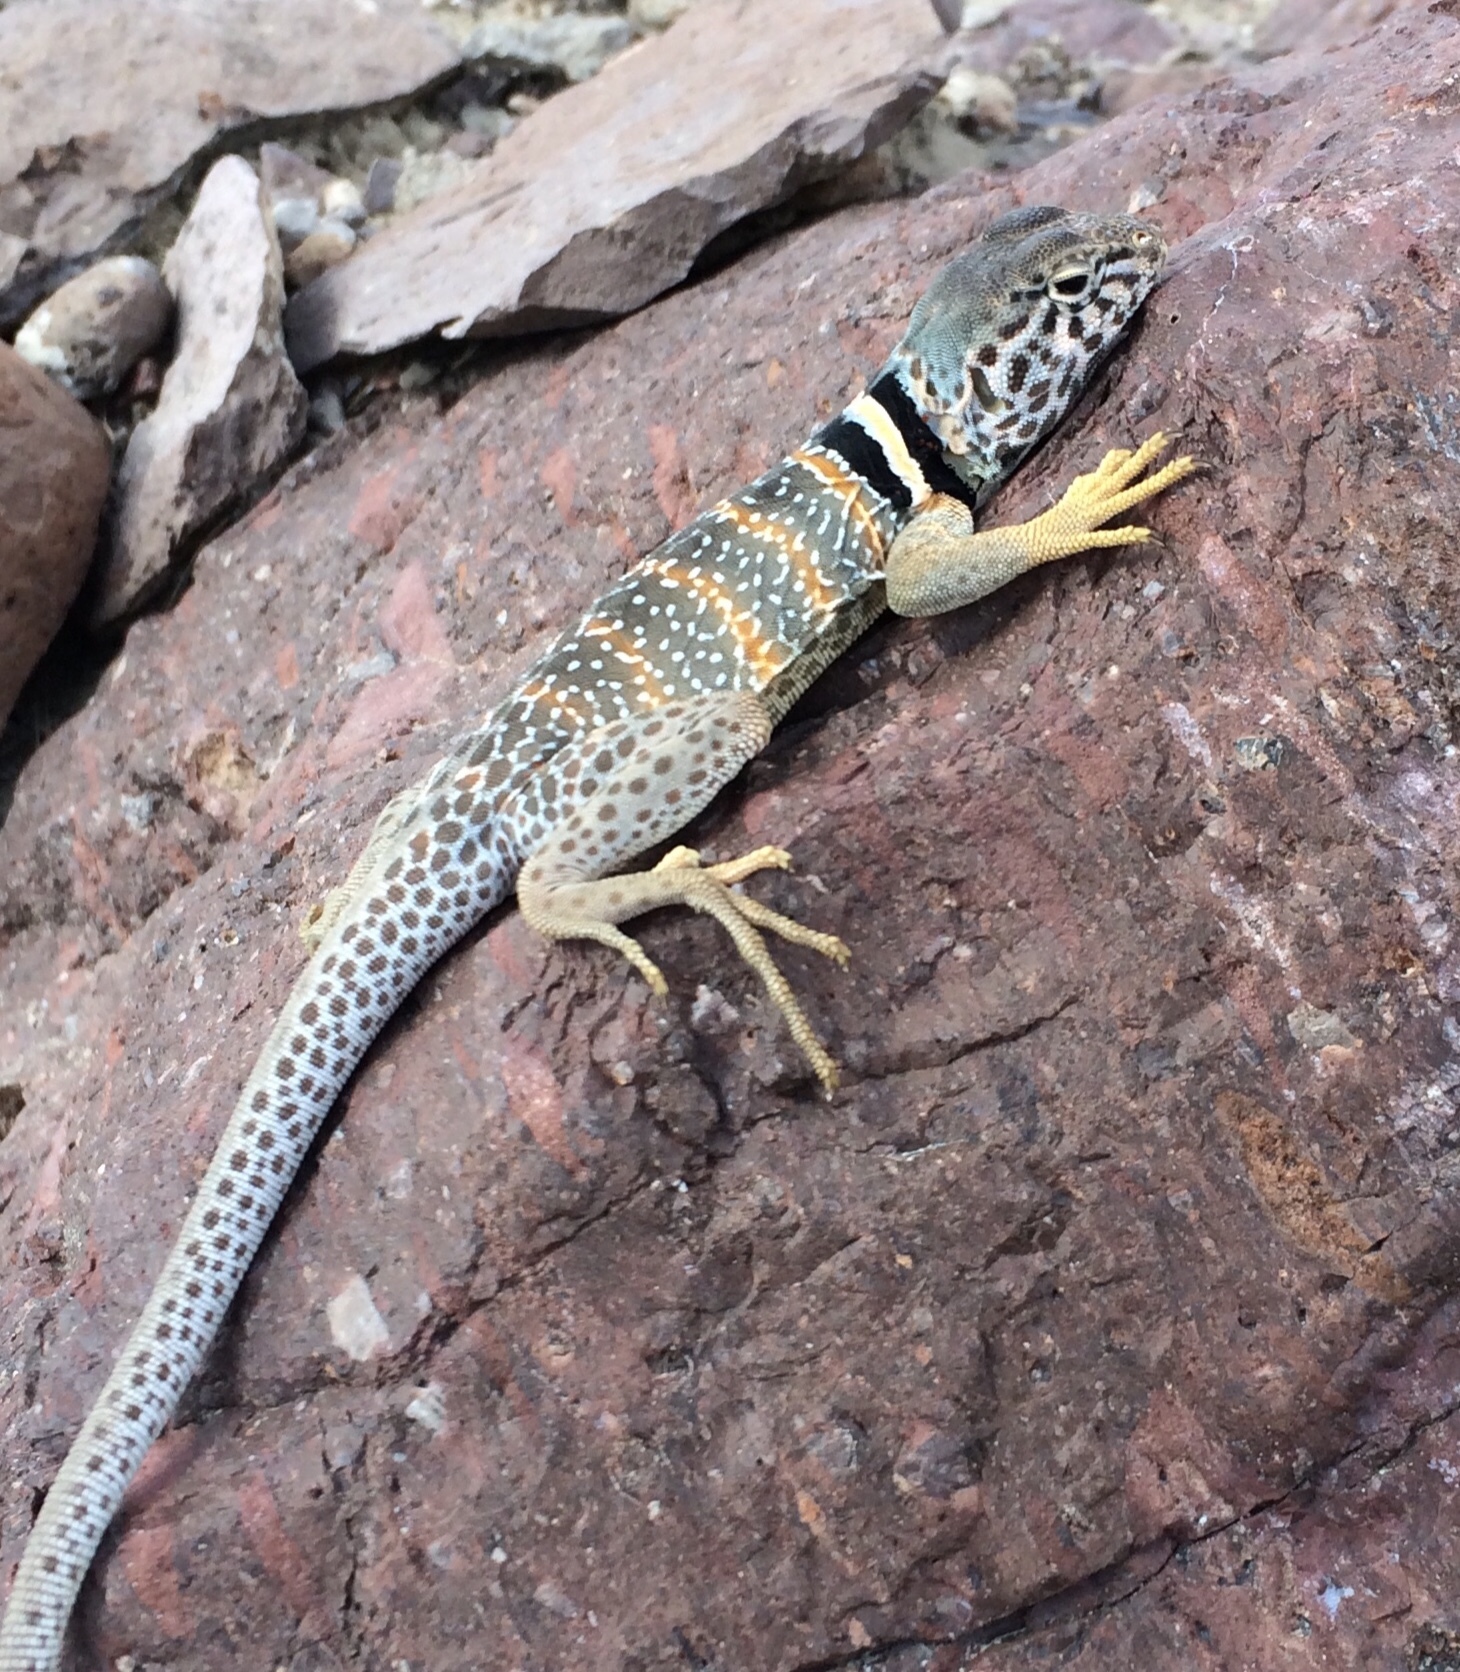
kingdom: Animalia
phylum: Chordata
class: Squamata
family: Crotaphytidae
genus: Crotaphytus
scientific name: Crotaphytus bicinctores
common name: Mojave black-collared lizard
